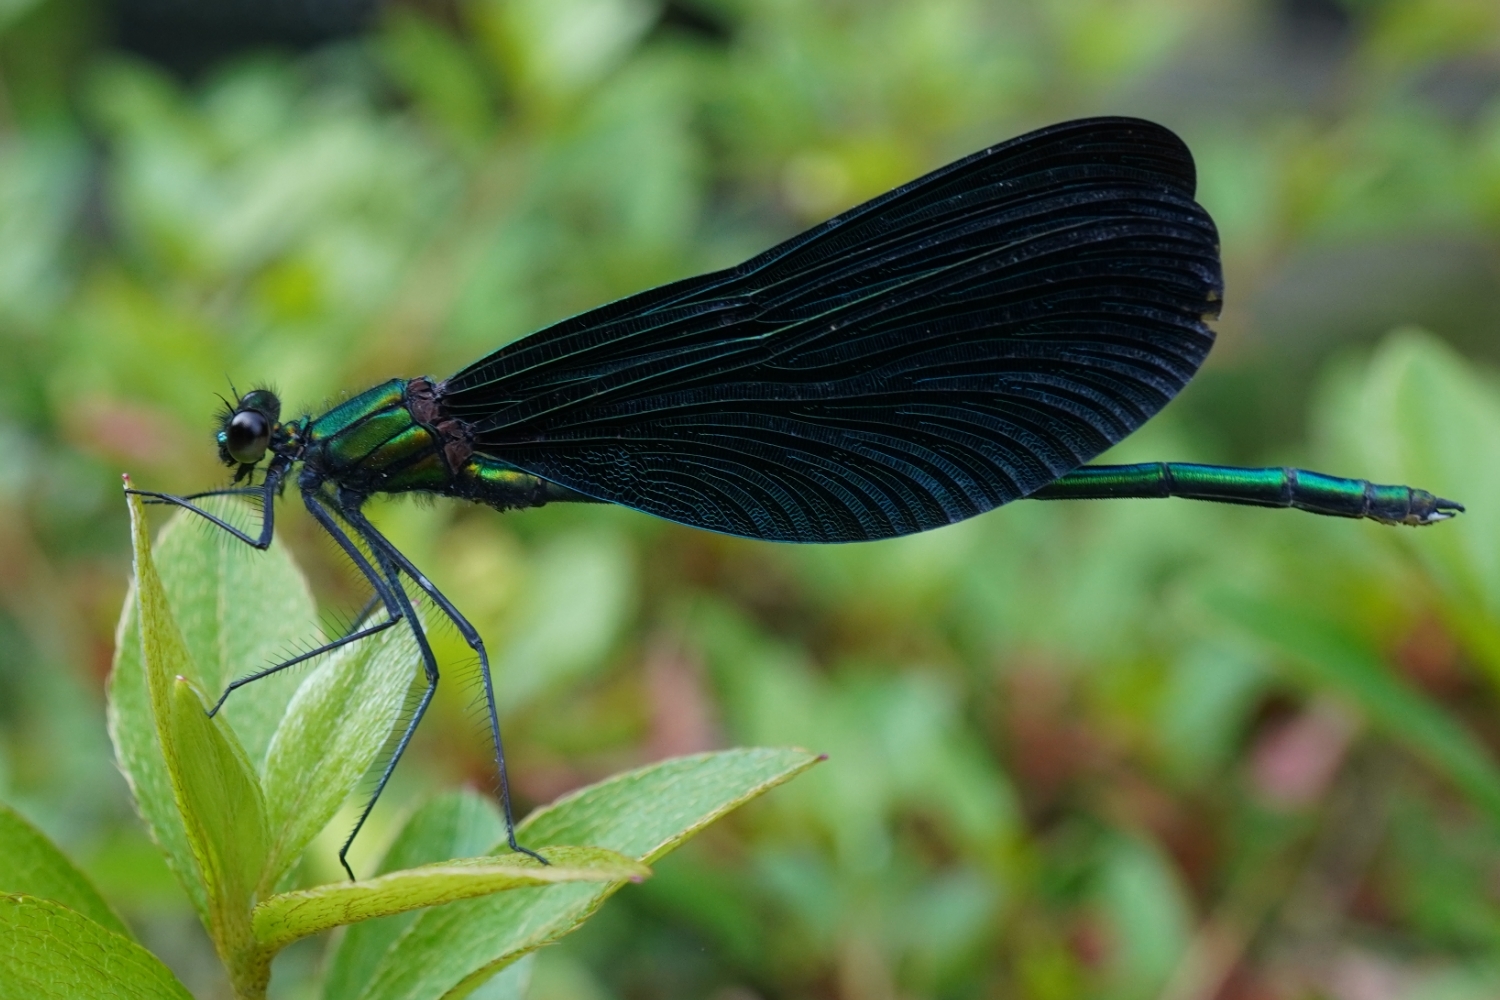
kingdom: Animalia
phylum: Arthropoda
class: Insecta
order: Odonata
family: Calopterygidae
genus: Calopteryx
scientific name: Calopteryx japonica
